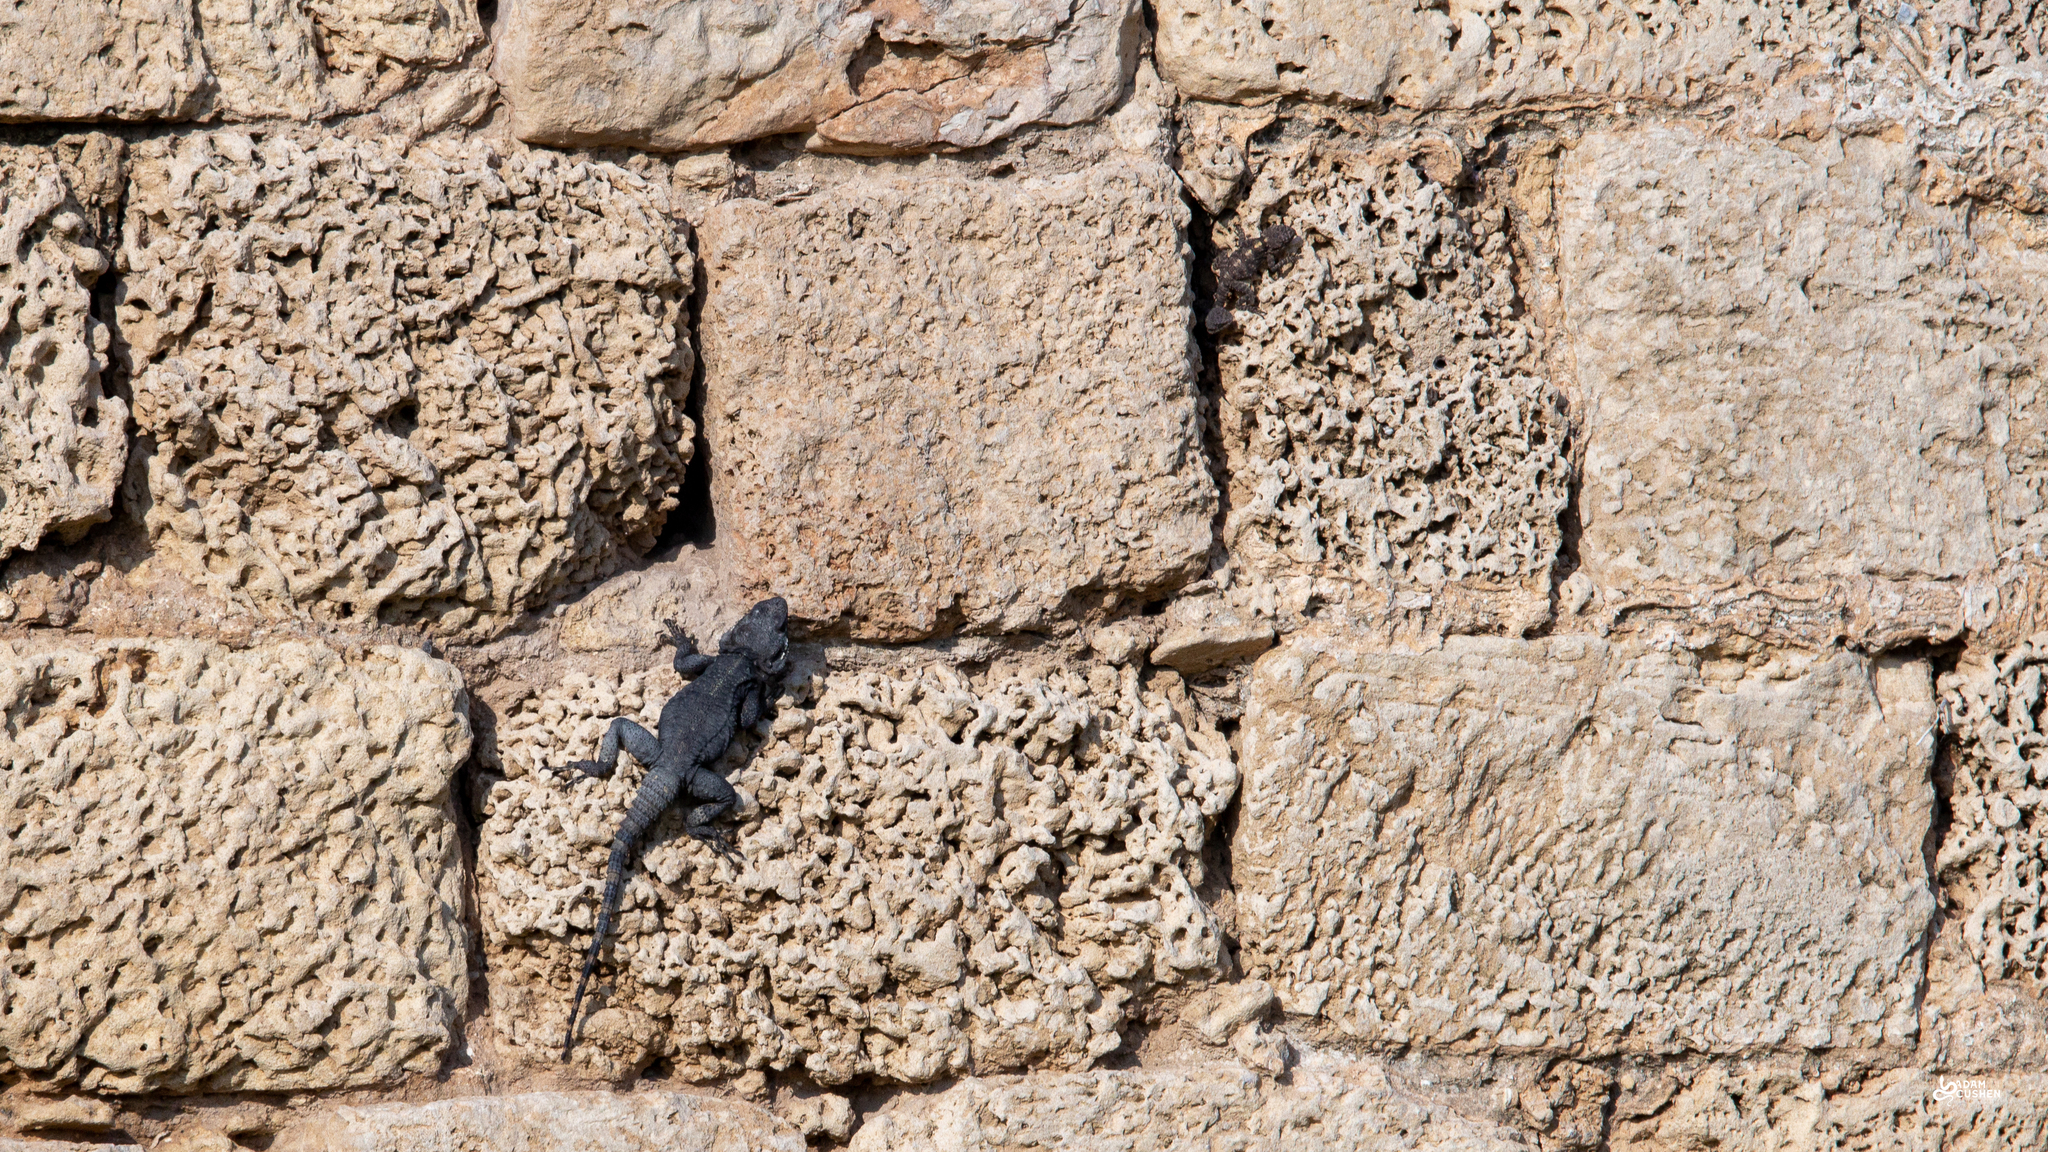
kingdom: Animalia
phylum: Chordata
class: Squamata
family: Agamidae
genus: Laudakia
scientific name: Laudakia vulgaris
